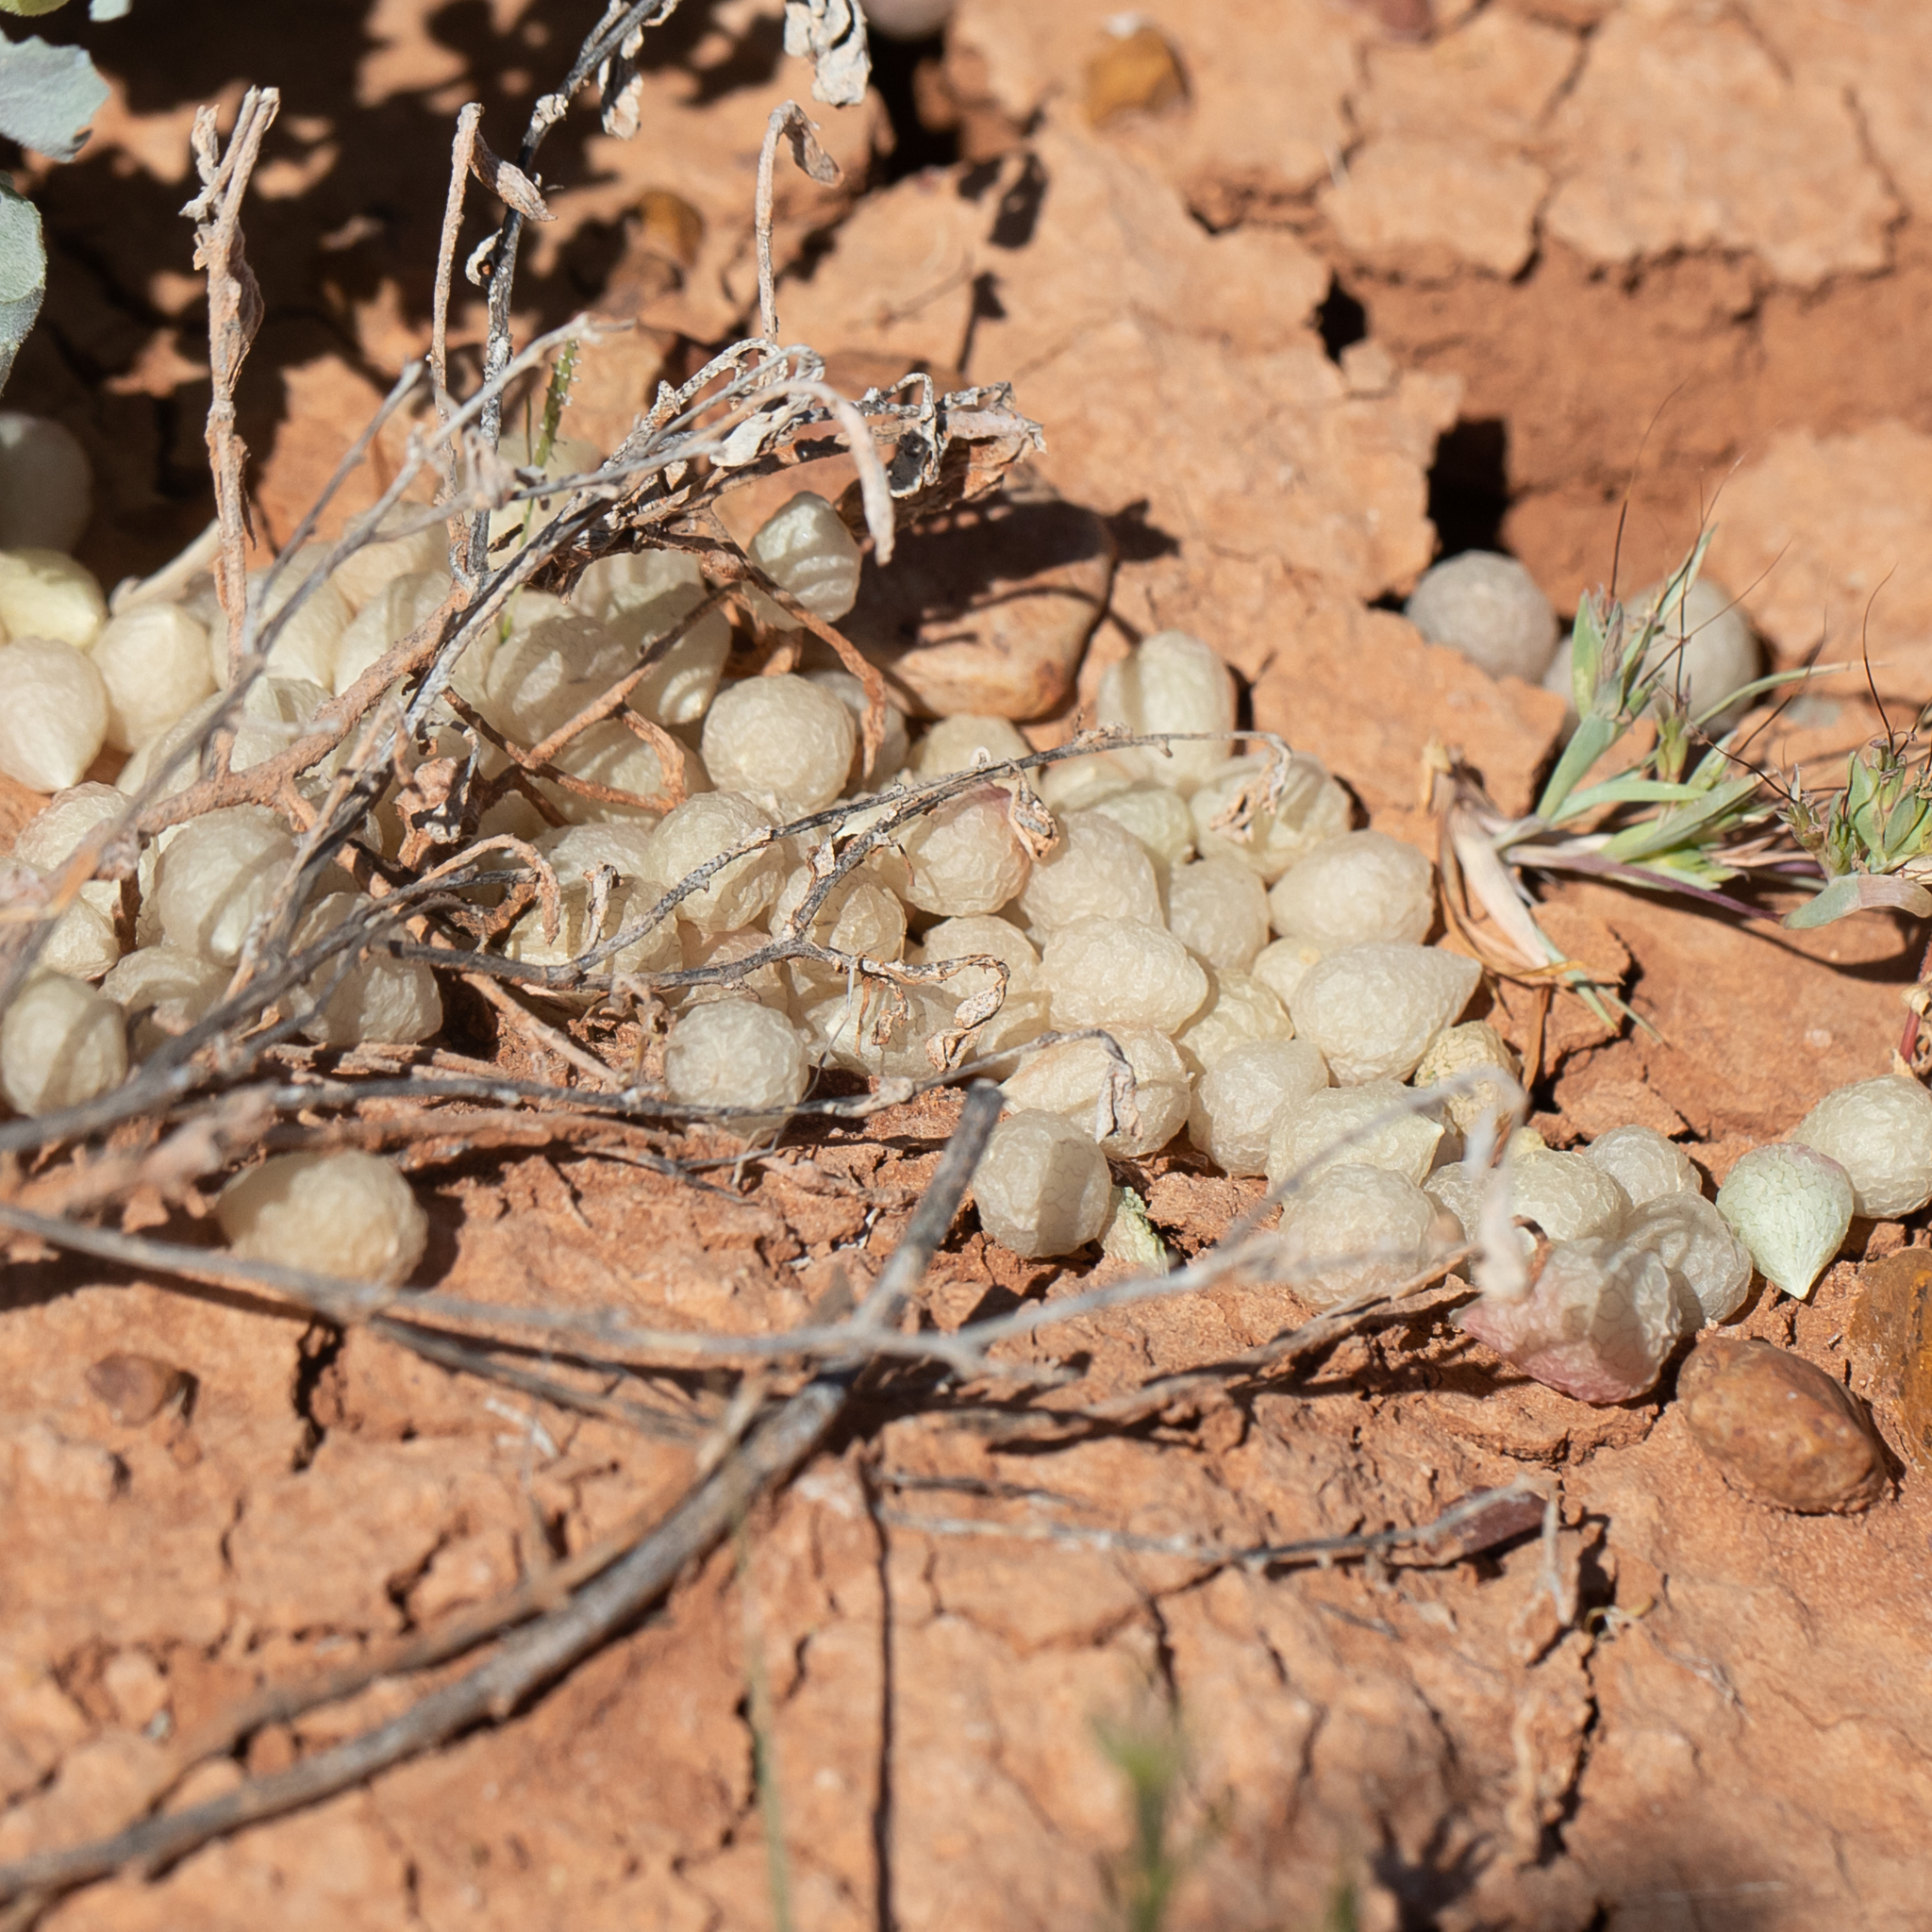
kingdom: Plantae
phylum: Tracheophyta
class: Magnoliopsida
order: Caryophyllales
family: Amaranthaceae
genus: Atriplex
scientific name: Atriplex holocarpa
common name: Pop saltbush
